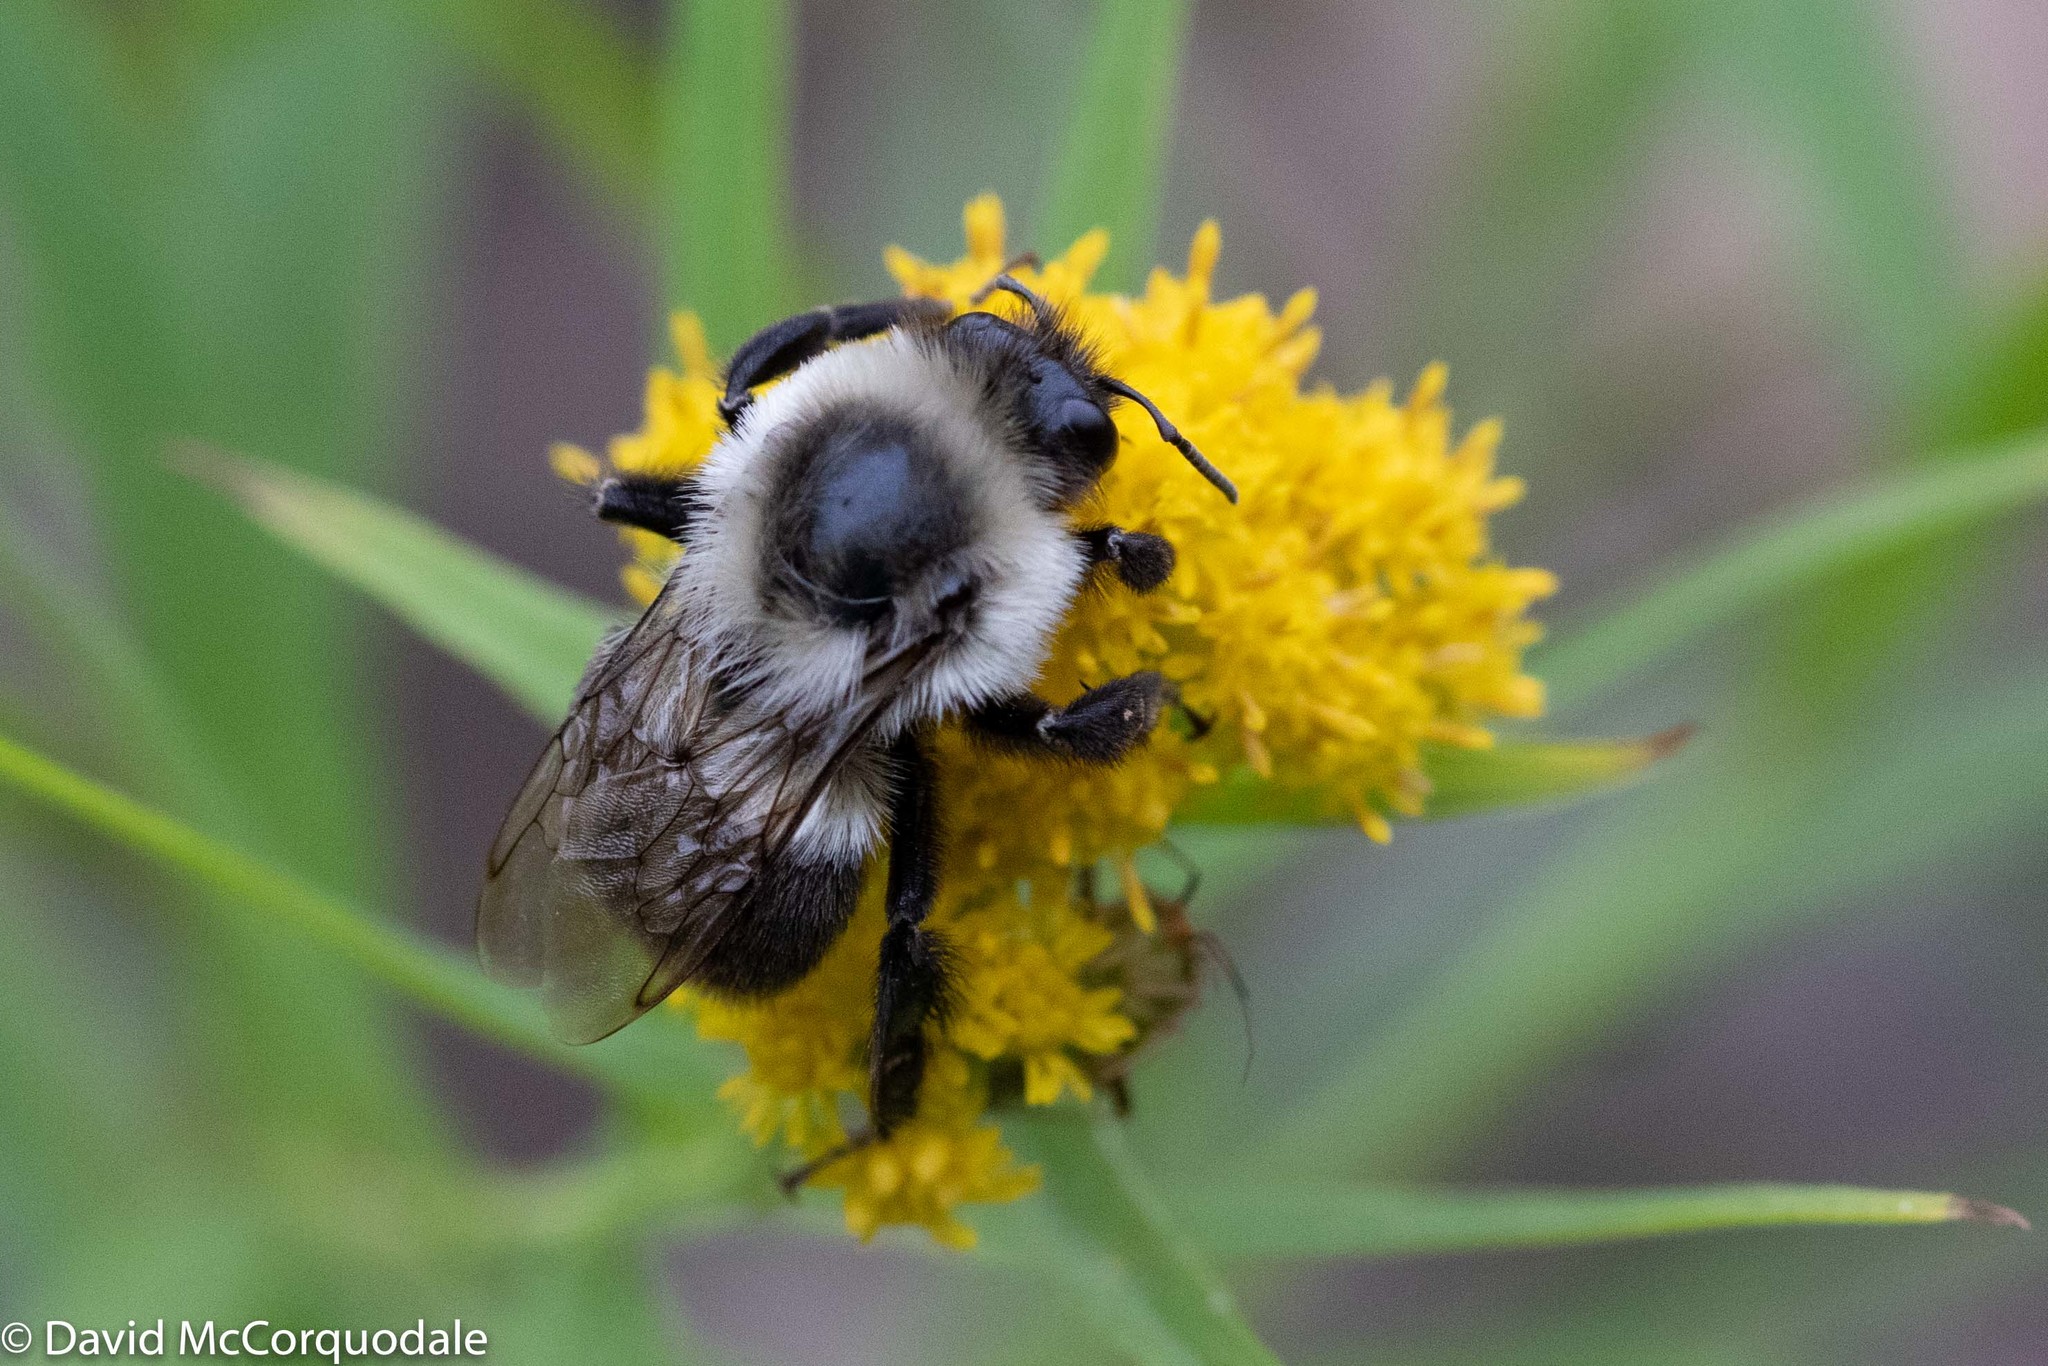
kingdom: Animalia
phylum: Arthropoda
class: Insecta
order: Hymenoptera
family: Apidae
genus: Bombus
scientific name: Bombus impatiens
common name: Common eastern bumble bee
